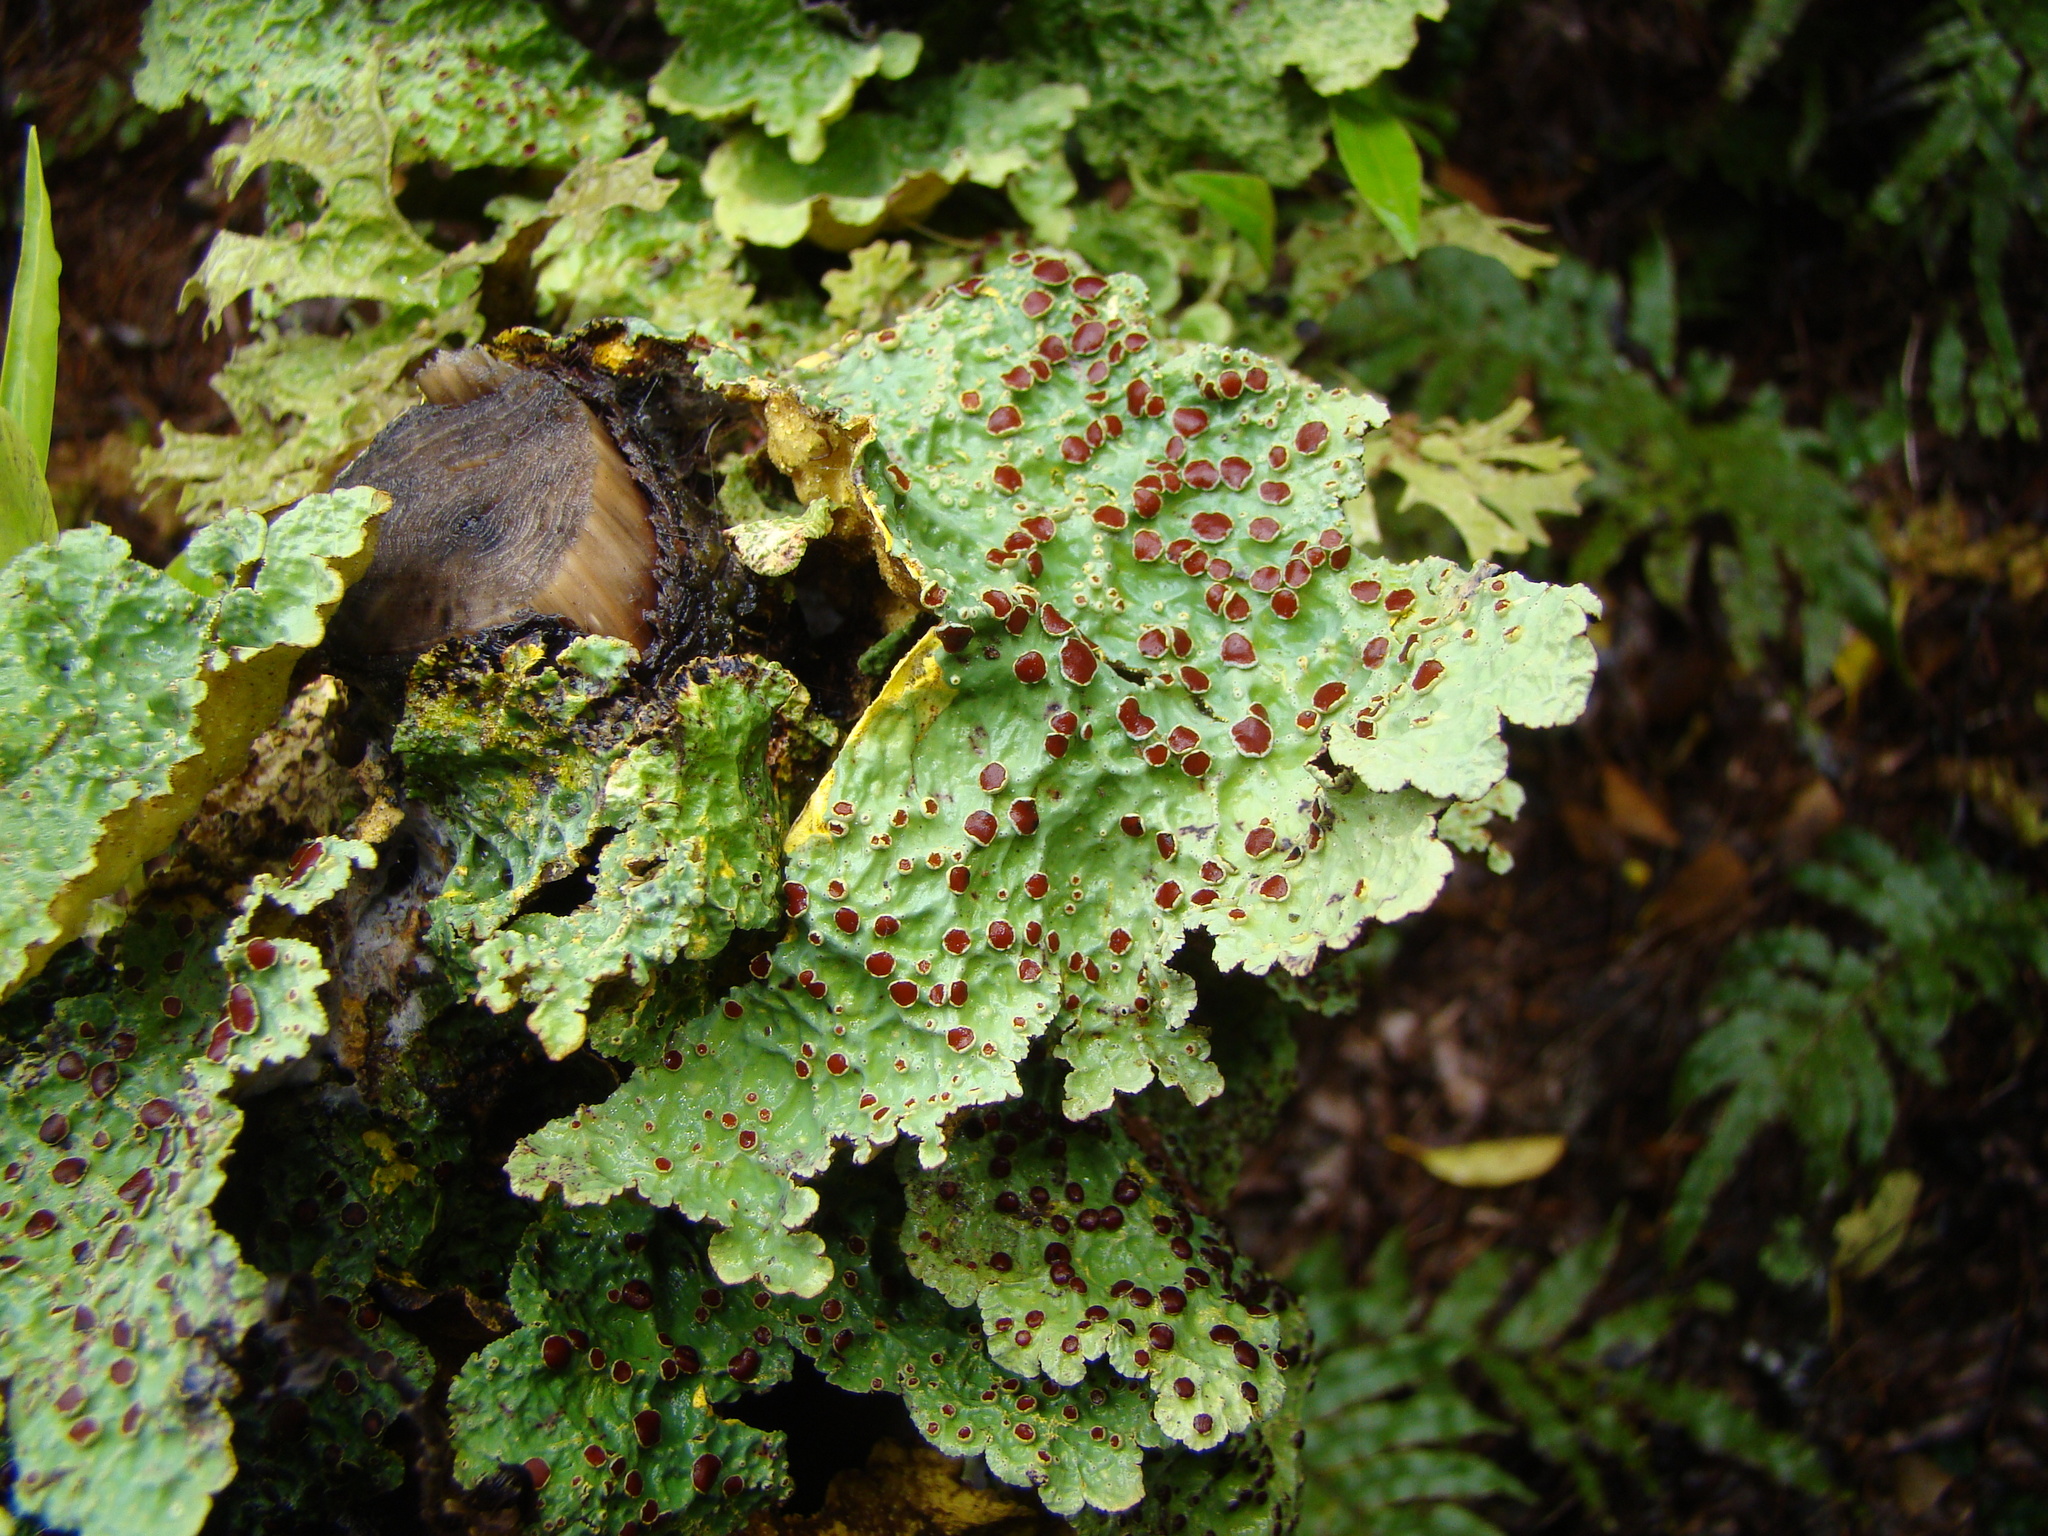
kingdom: Fungi
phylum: Ascomycota
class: Lecanoromycetes
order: Peltigerales
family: Lobariaceae
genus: Yarrumia
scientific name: Yarrumia coronata
